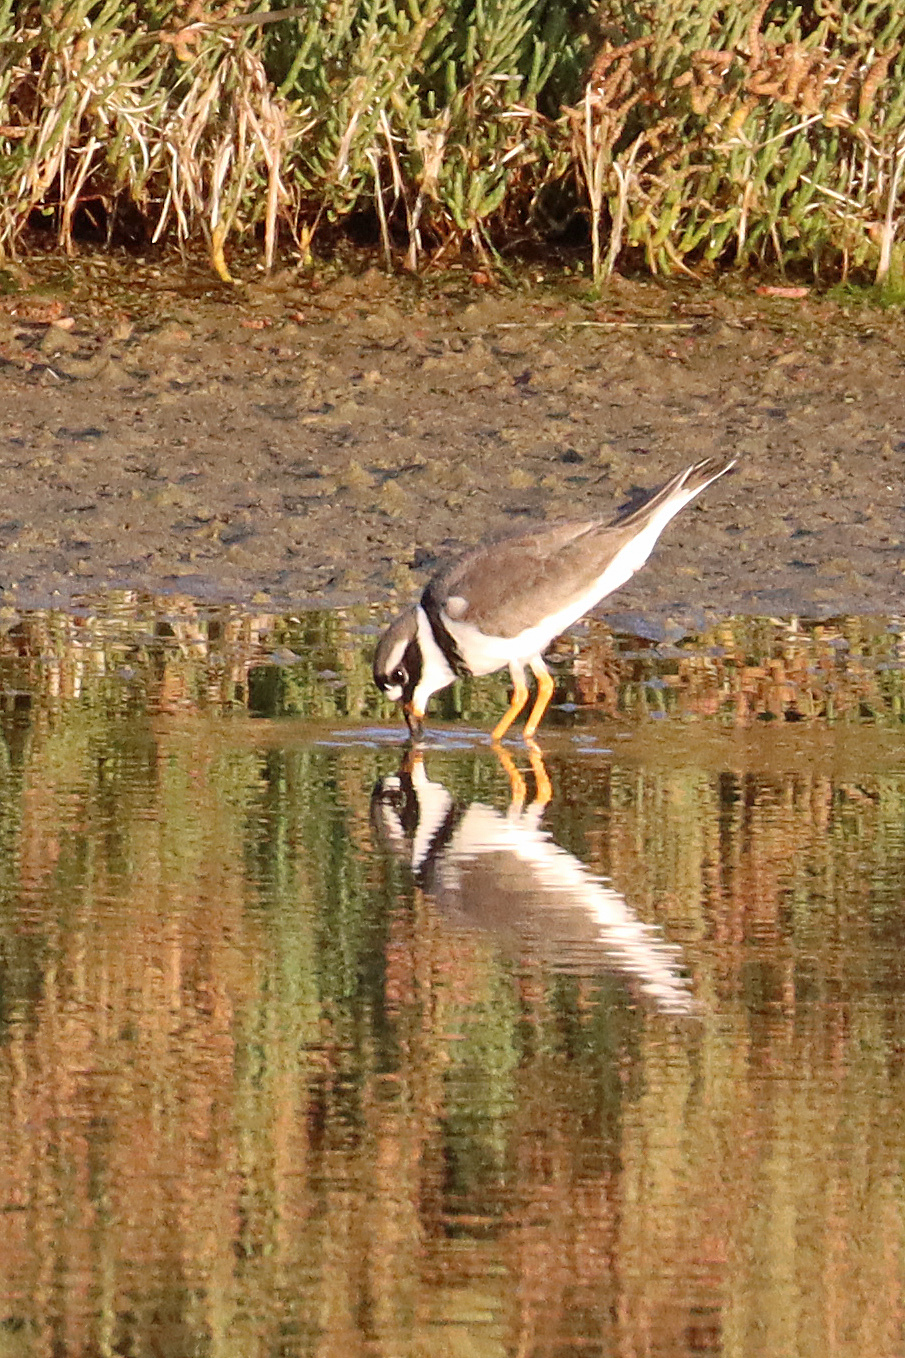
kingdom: Animalia
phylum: Chordata
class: Aves
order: Charadriiformes
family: Charadriidae
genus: Charadrius
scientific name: Charadrius hiaticula
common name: Common ringed plover
